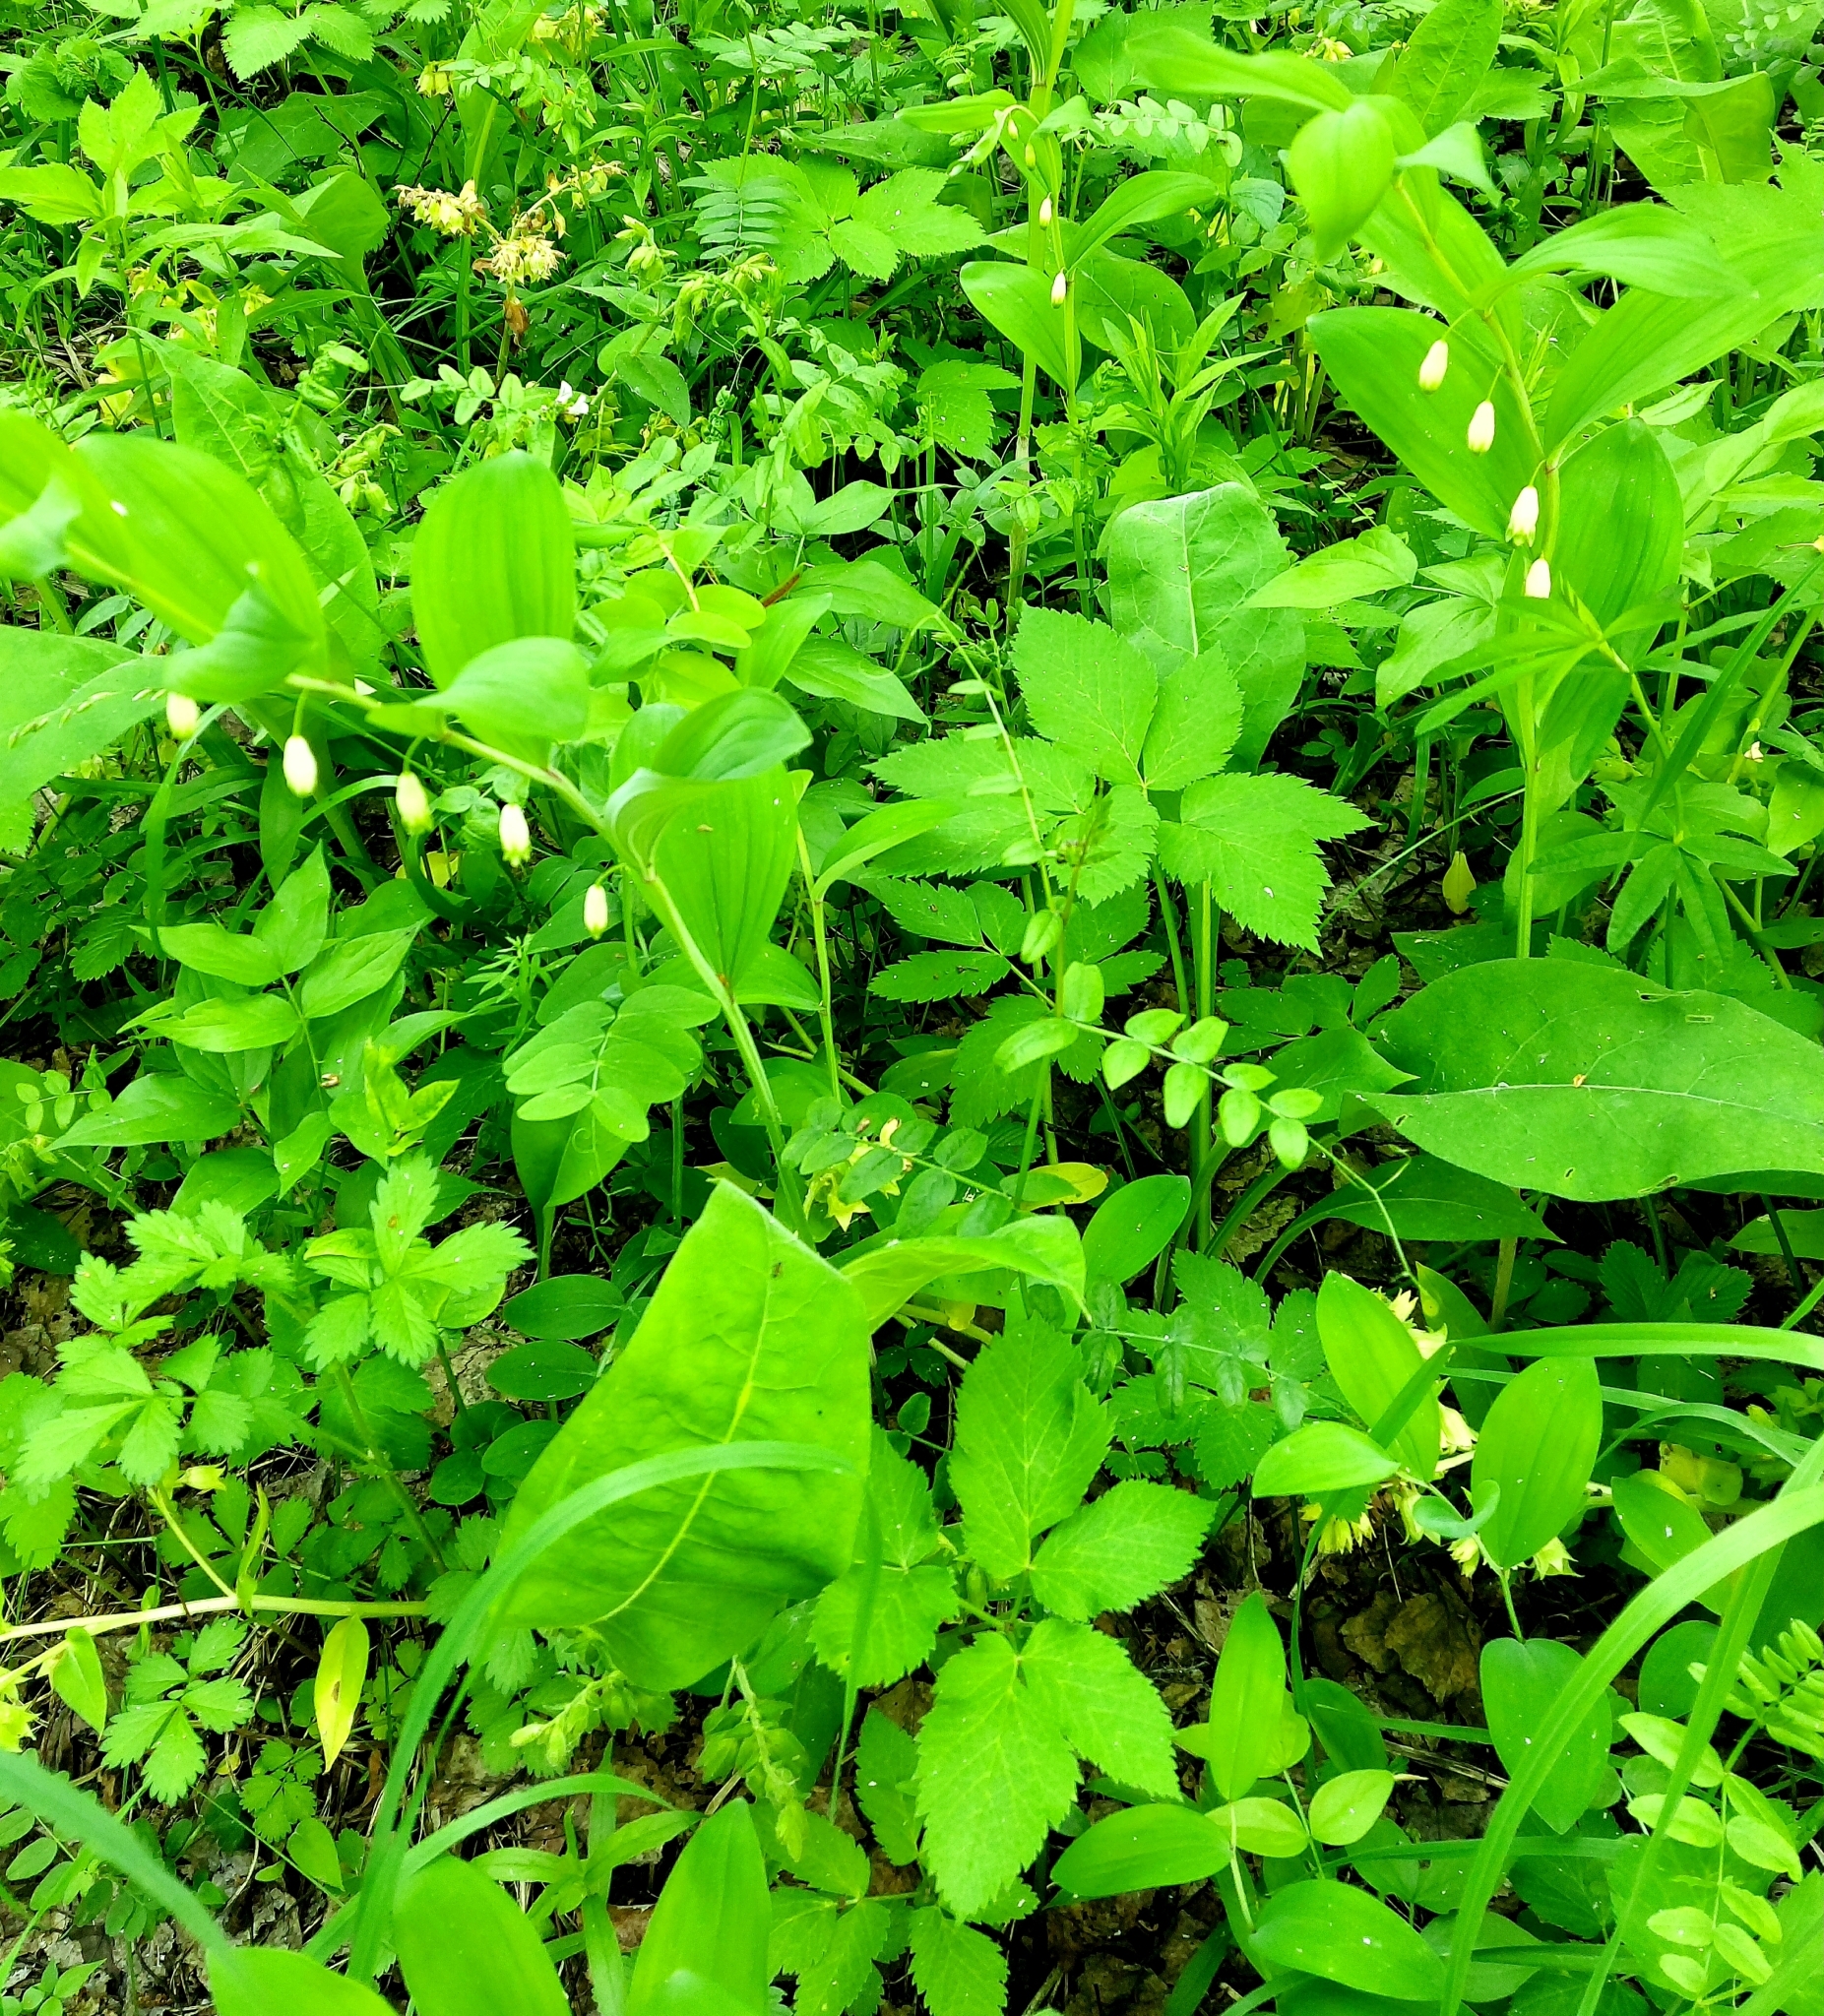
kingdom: Plantae
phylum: Tracheophyta
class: Liliopsida
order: Asparagales
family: Asparagaceae
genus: Polygonatum
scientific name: Polygonatum odoratum
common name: Angular solomon's-seal
